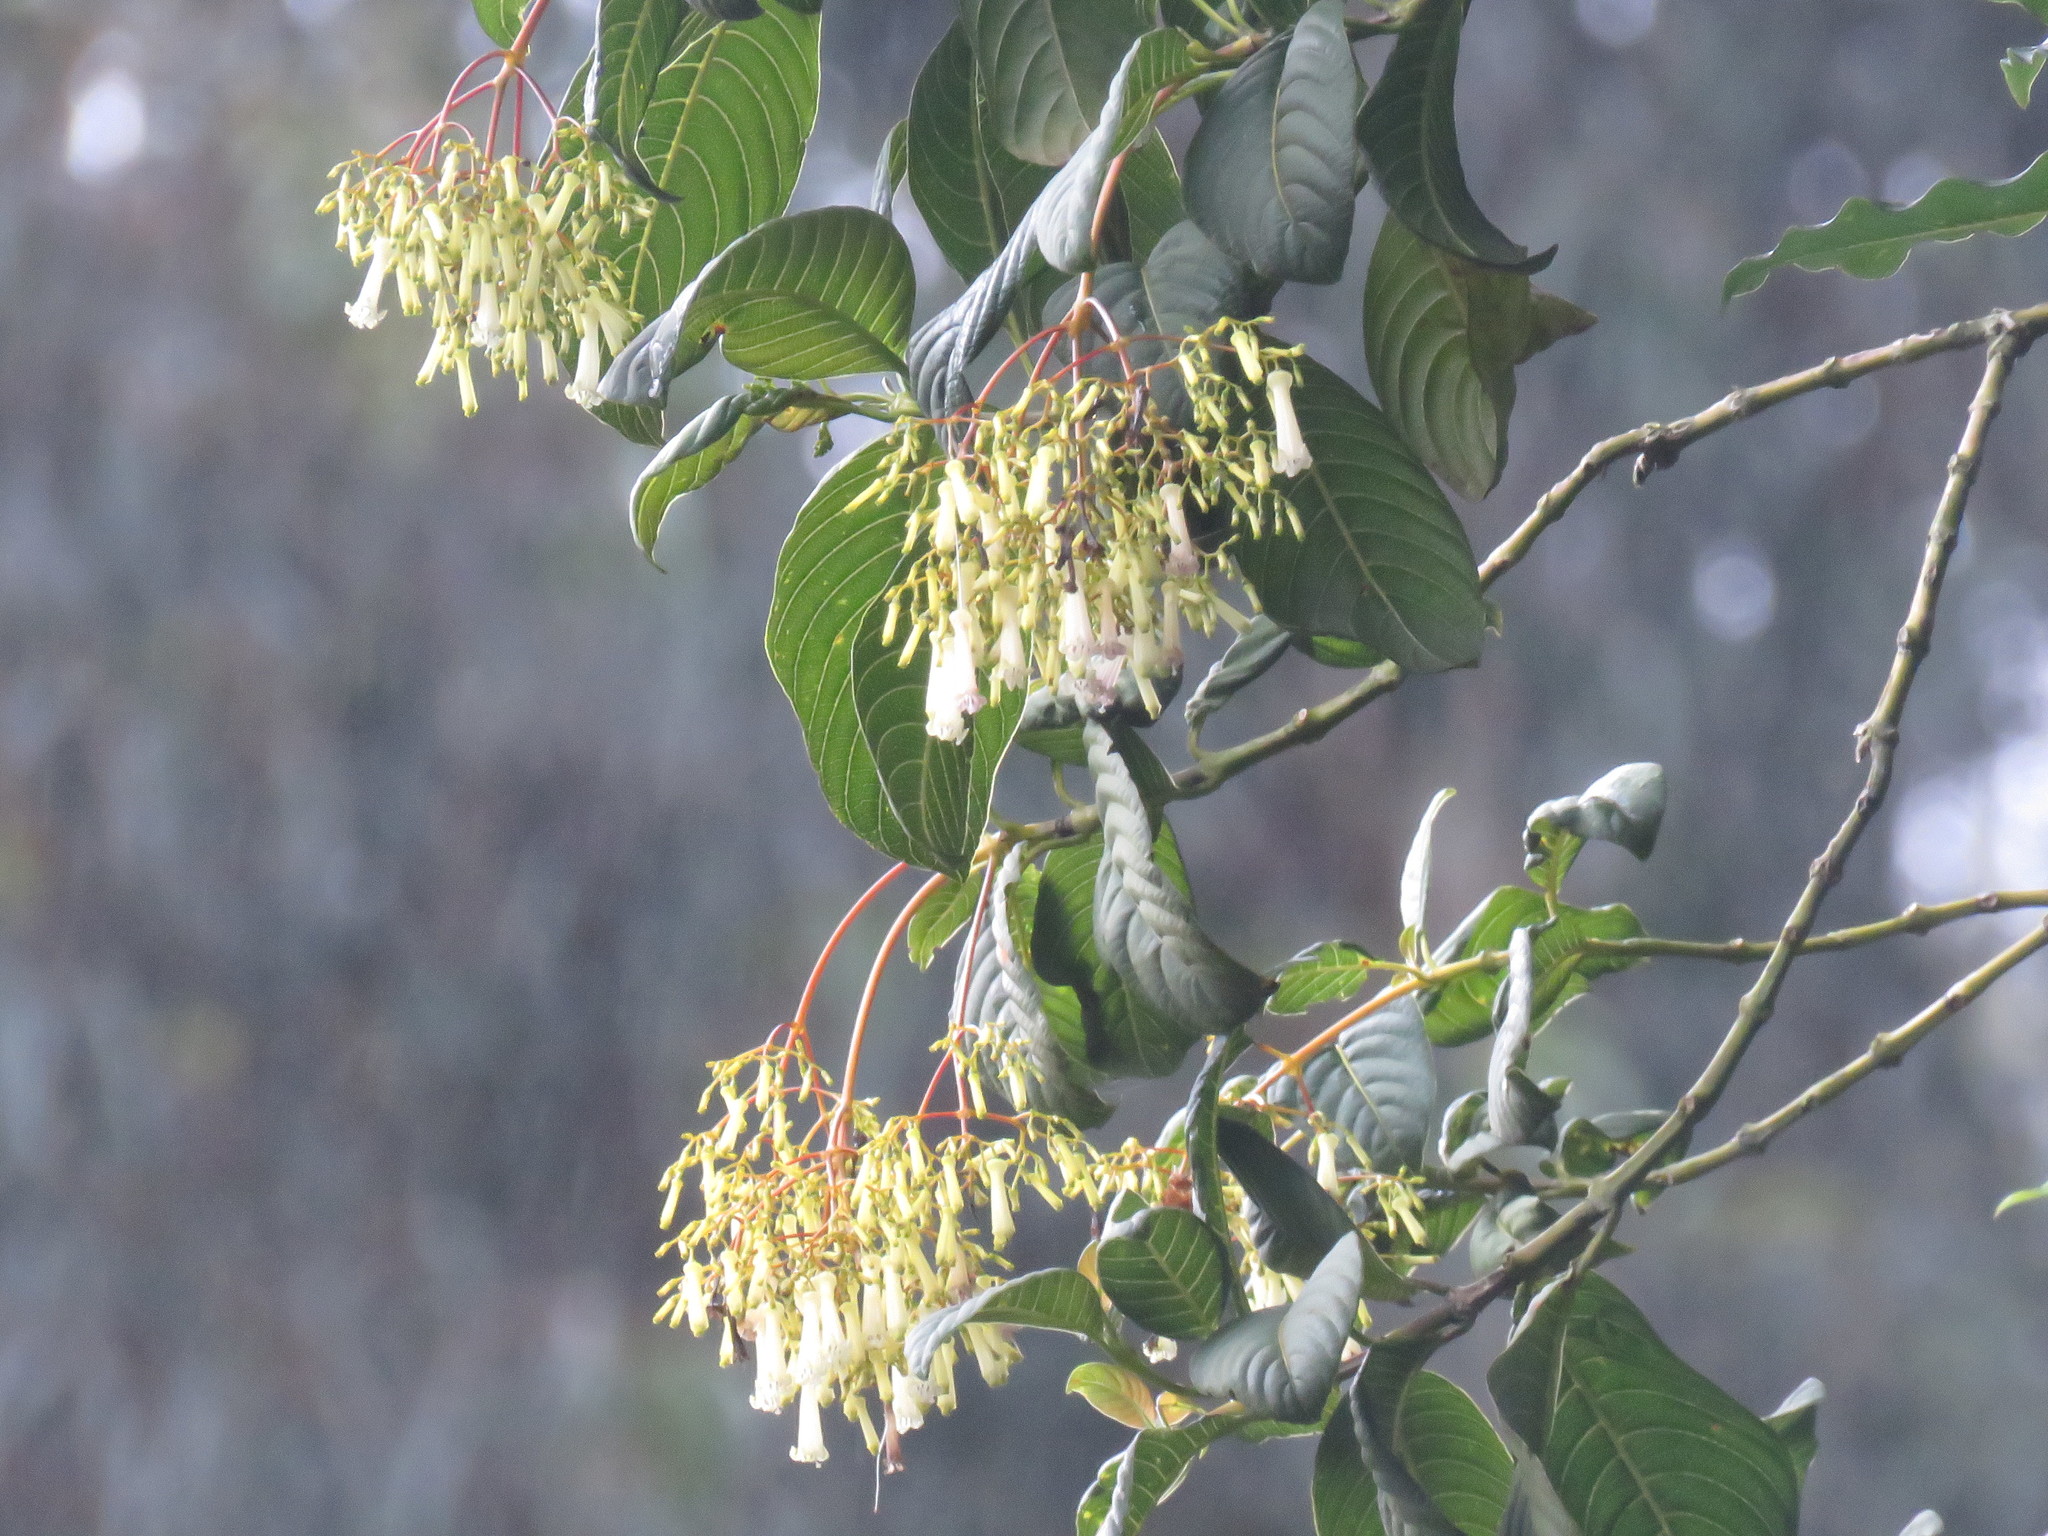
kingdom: Plantae
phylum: Tracheophyta
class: Magnoliopsida
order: Gentianales
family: Rubiaceae
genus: Palicourea
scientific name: Palicourea lineariflora
